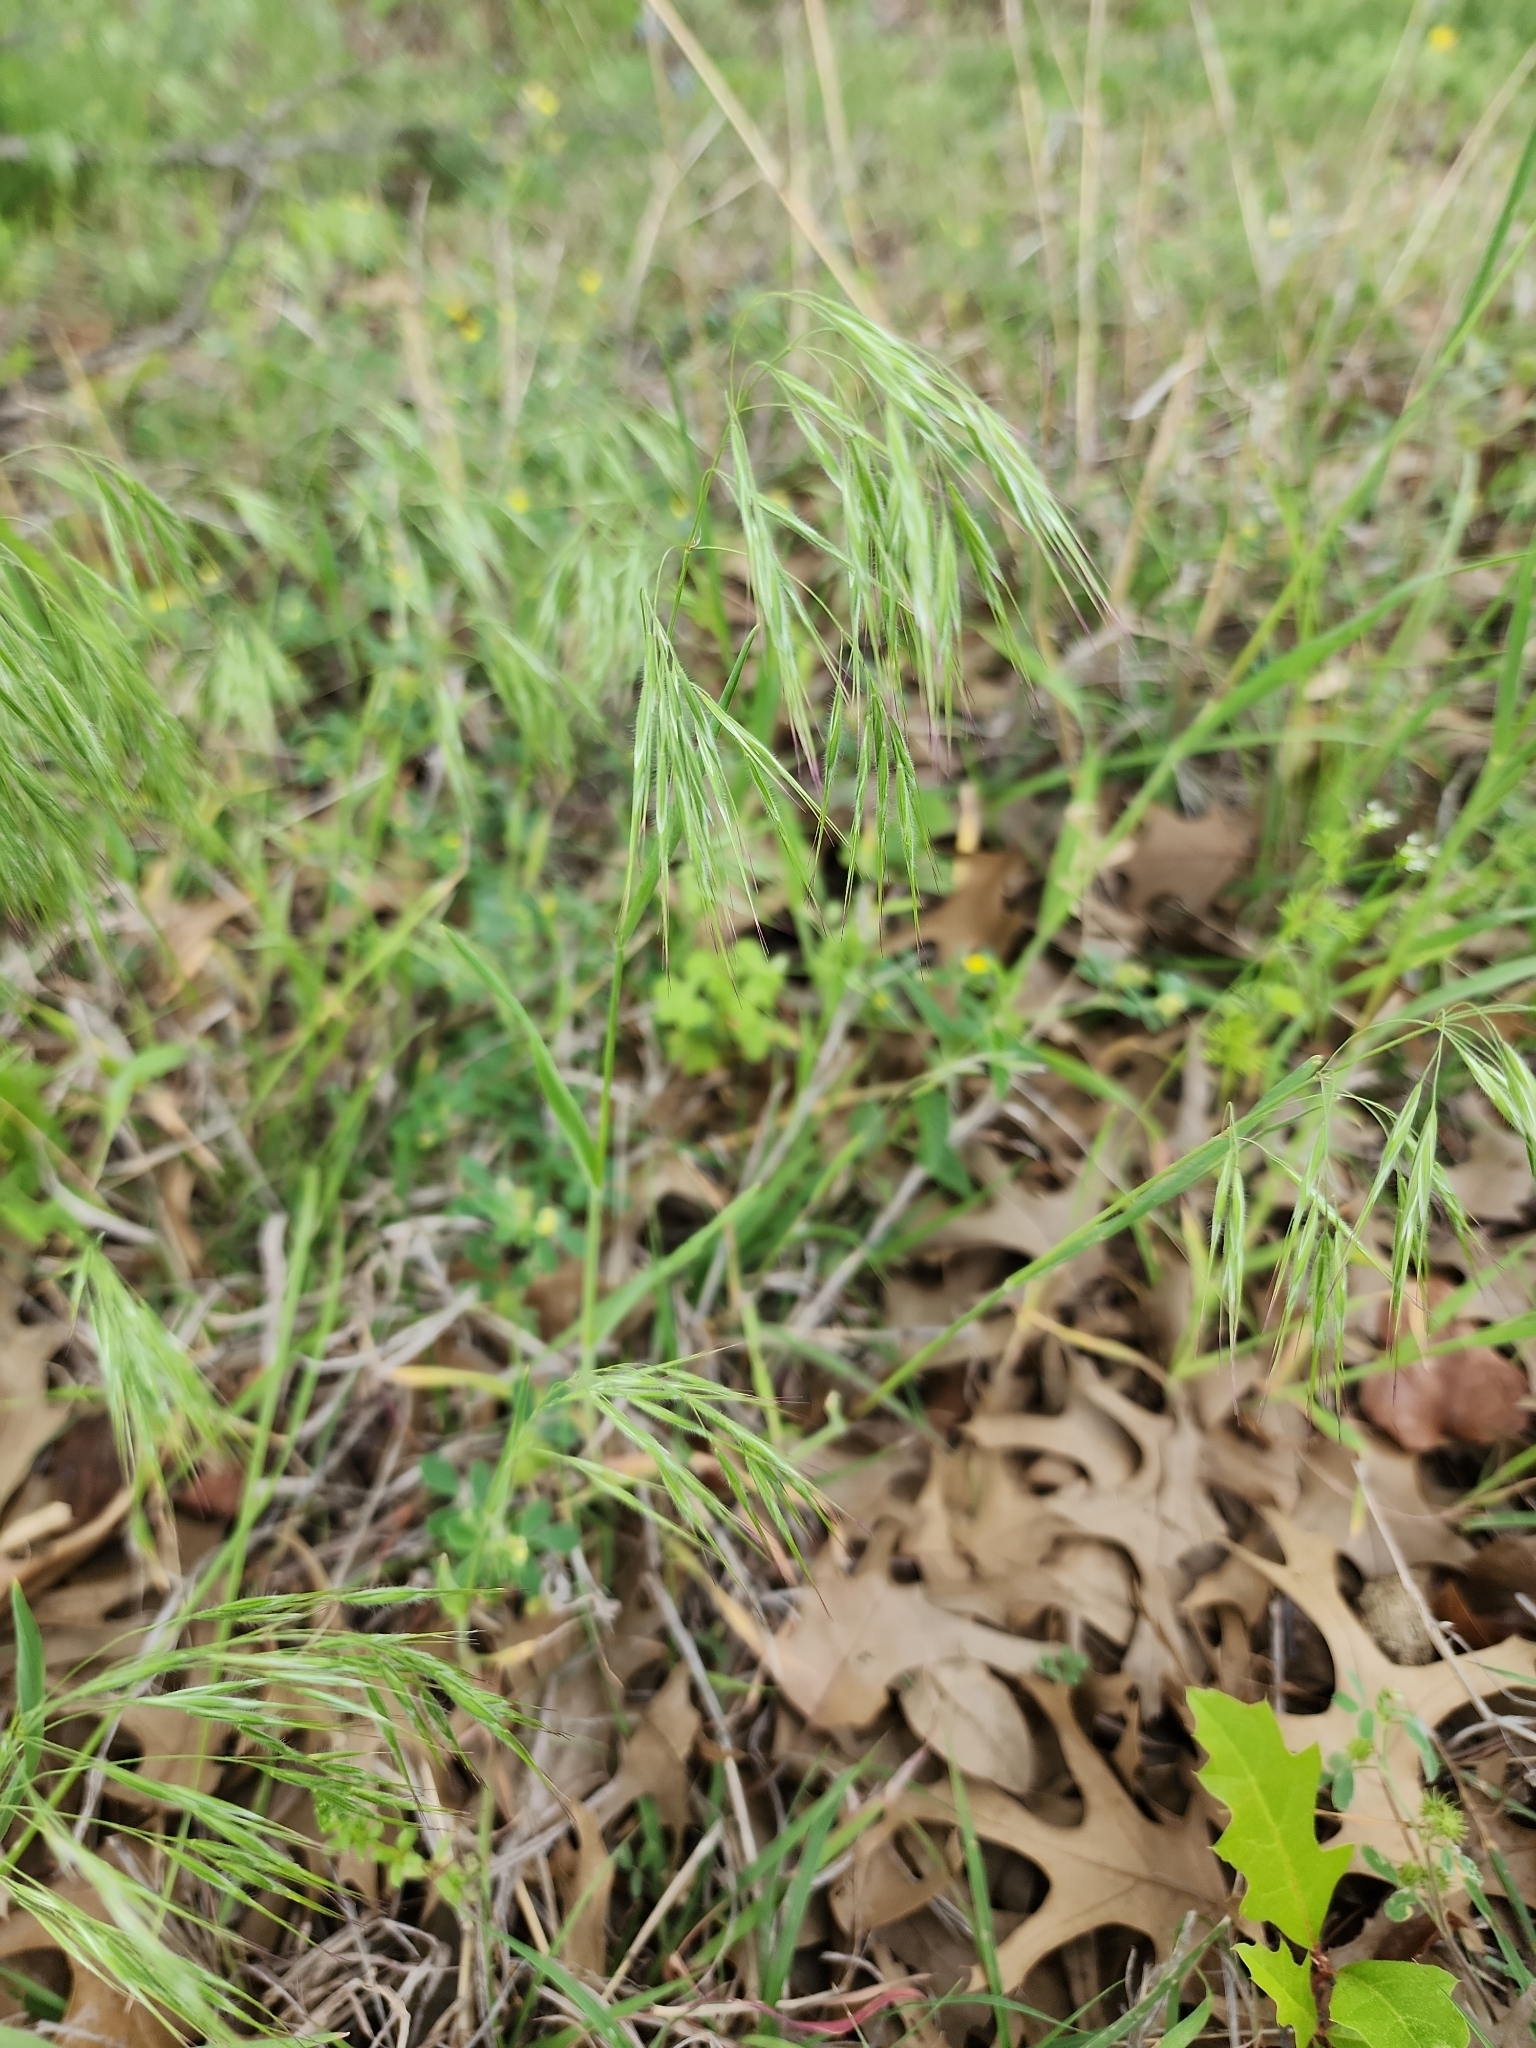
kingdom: Plantae
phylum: Tracheophyta
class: Liliopsida
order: Poales
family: Poaceae
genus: Bromus
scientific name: Bromus tectorum
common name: Cheatgrass
